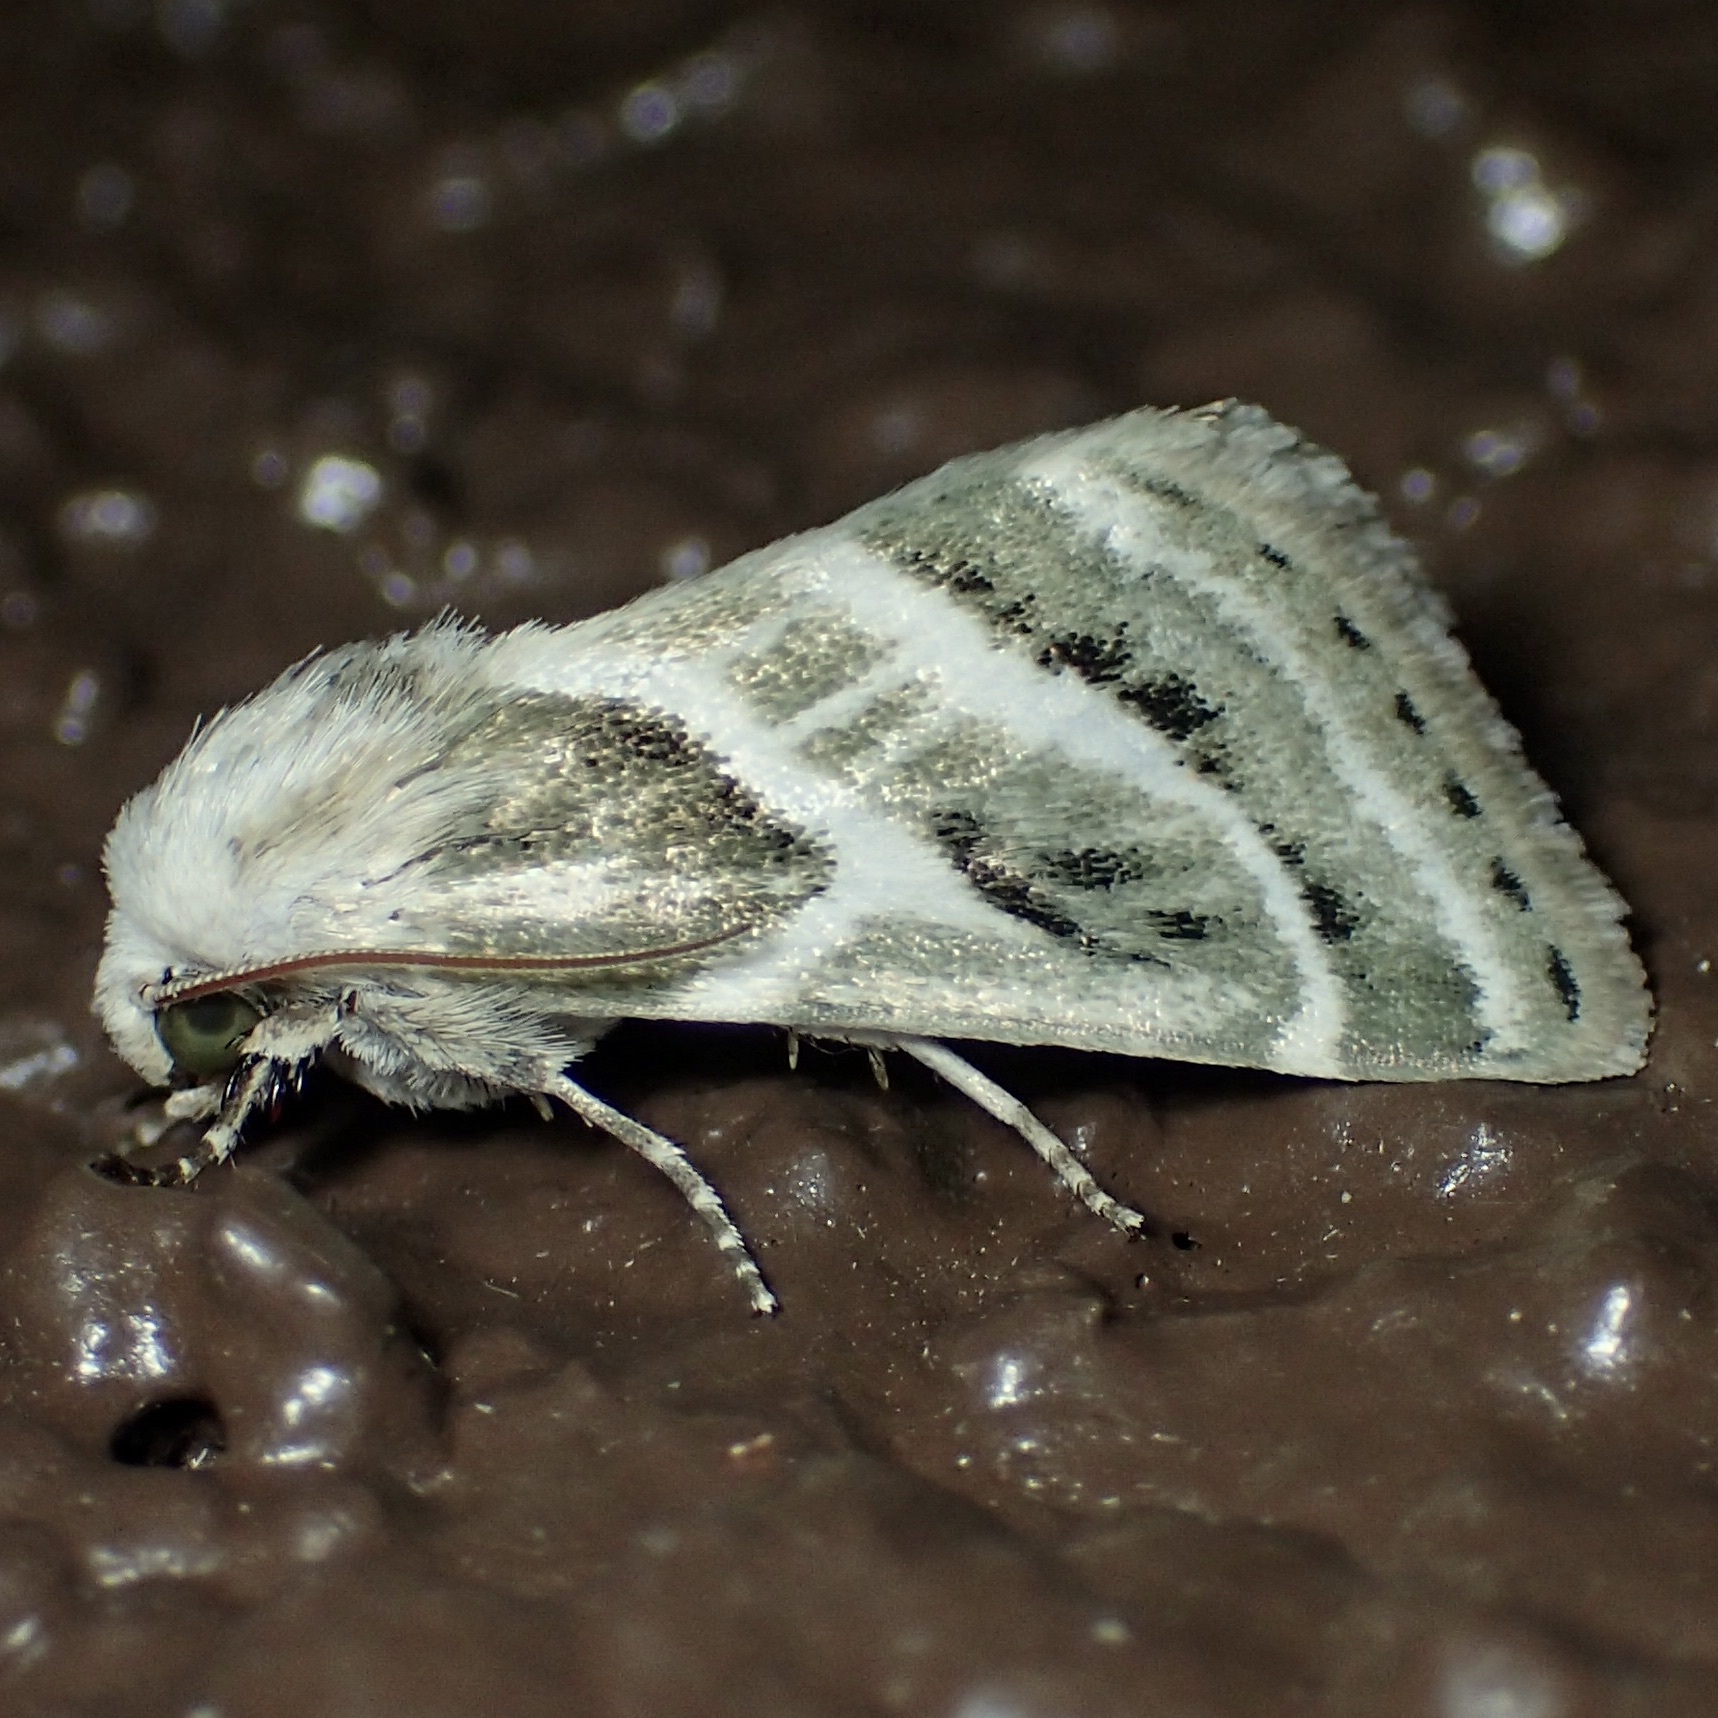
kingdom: Animalia
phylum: Arthropoda
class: Insecta
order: Lepidoptera
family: Noctuidae
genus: Schinia
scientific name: Schinia accessa
